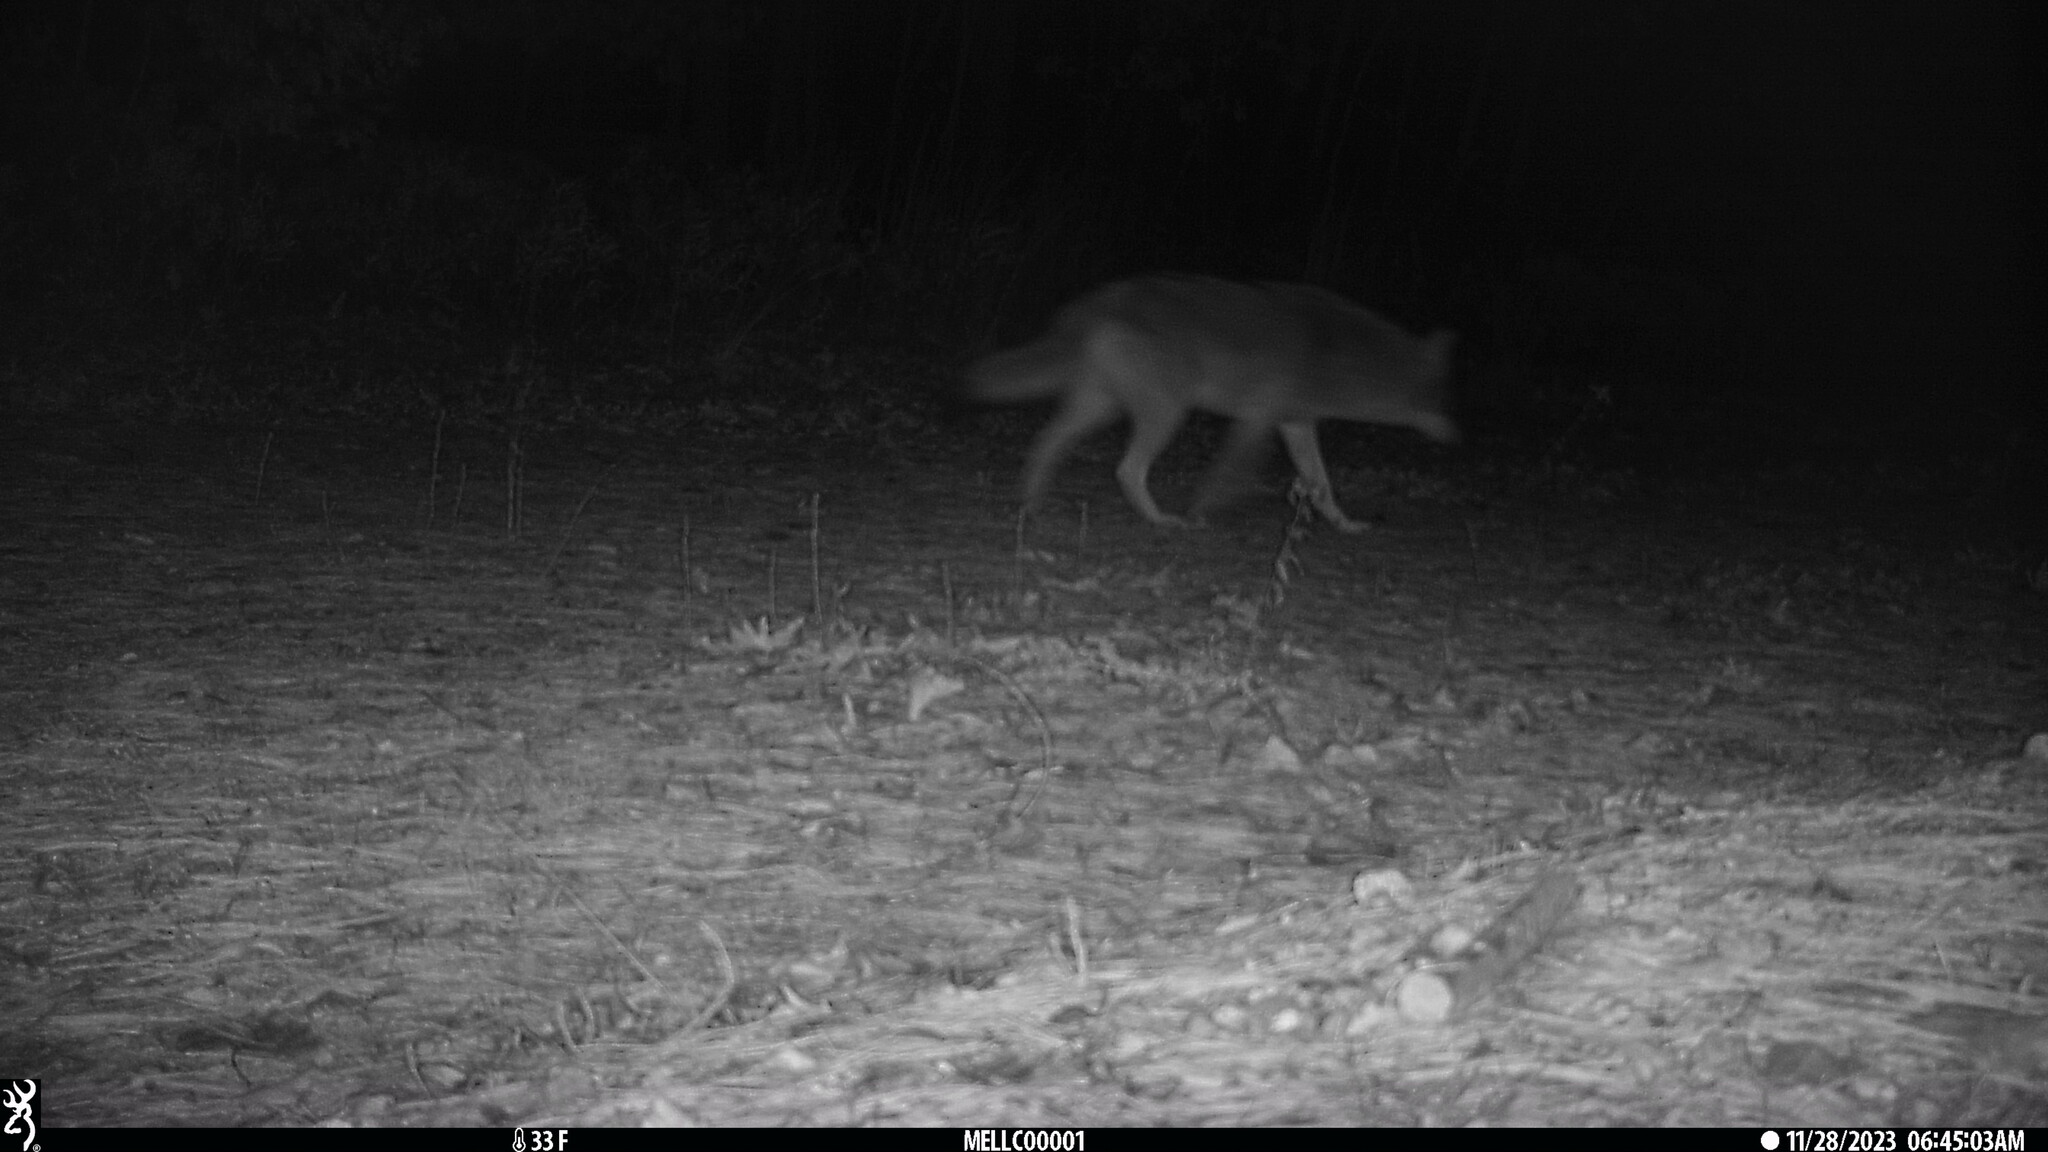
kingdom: Animalia
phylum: Chordata
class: Mammalia
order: Carnivora
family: Canidae
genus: Canis
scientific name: Canis latrans
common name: Coyote
